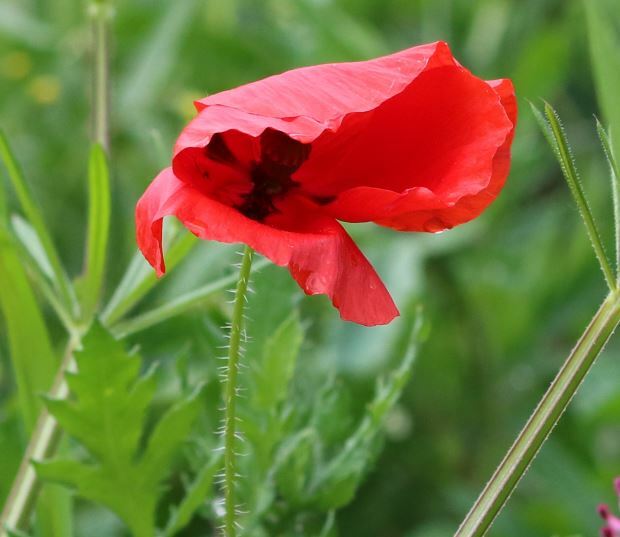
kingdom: Plantae
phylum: Tracheophyta
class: Magnoliopsida
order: Ranunculales
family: Papaveraceae
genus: Papaver
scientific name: Papaver rhoeas
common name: Corn poppy
